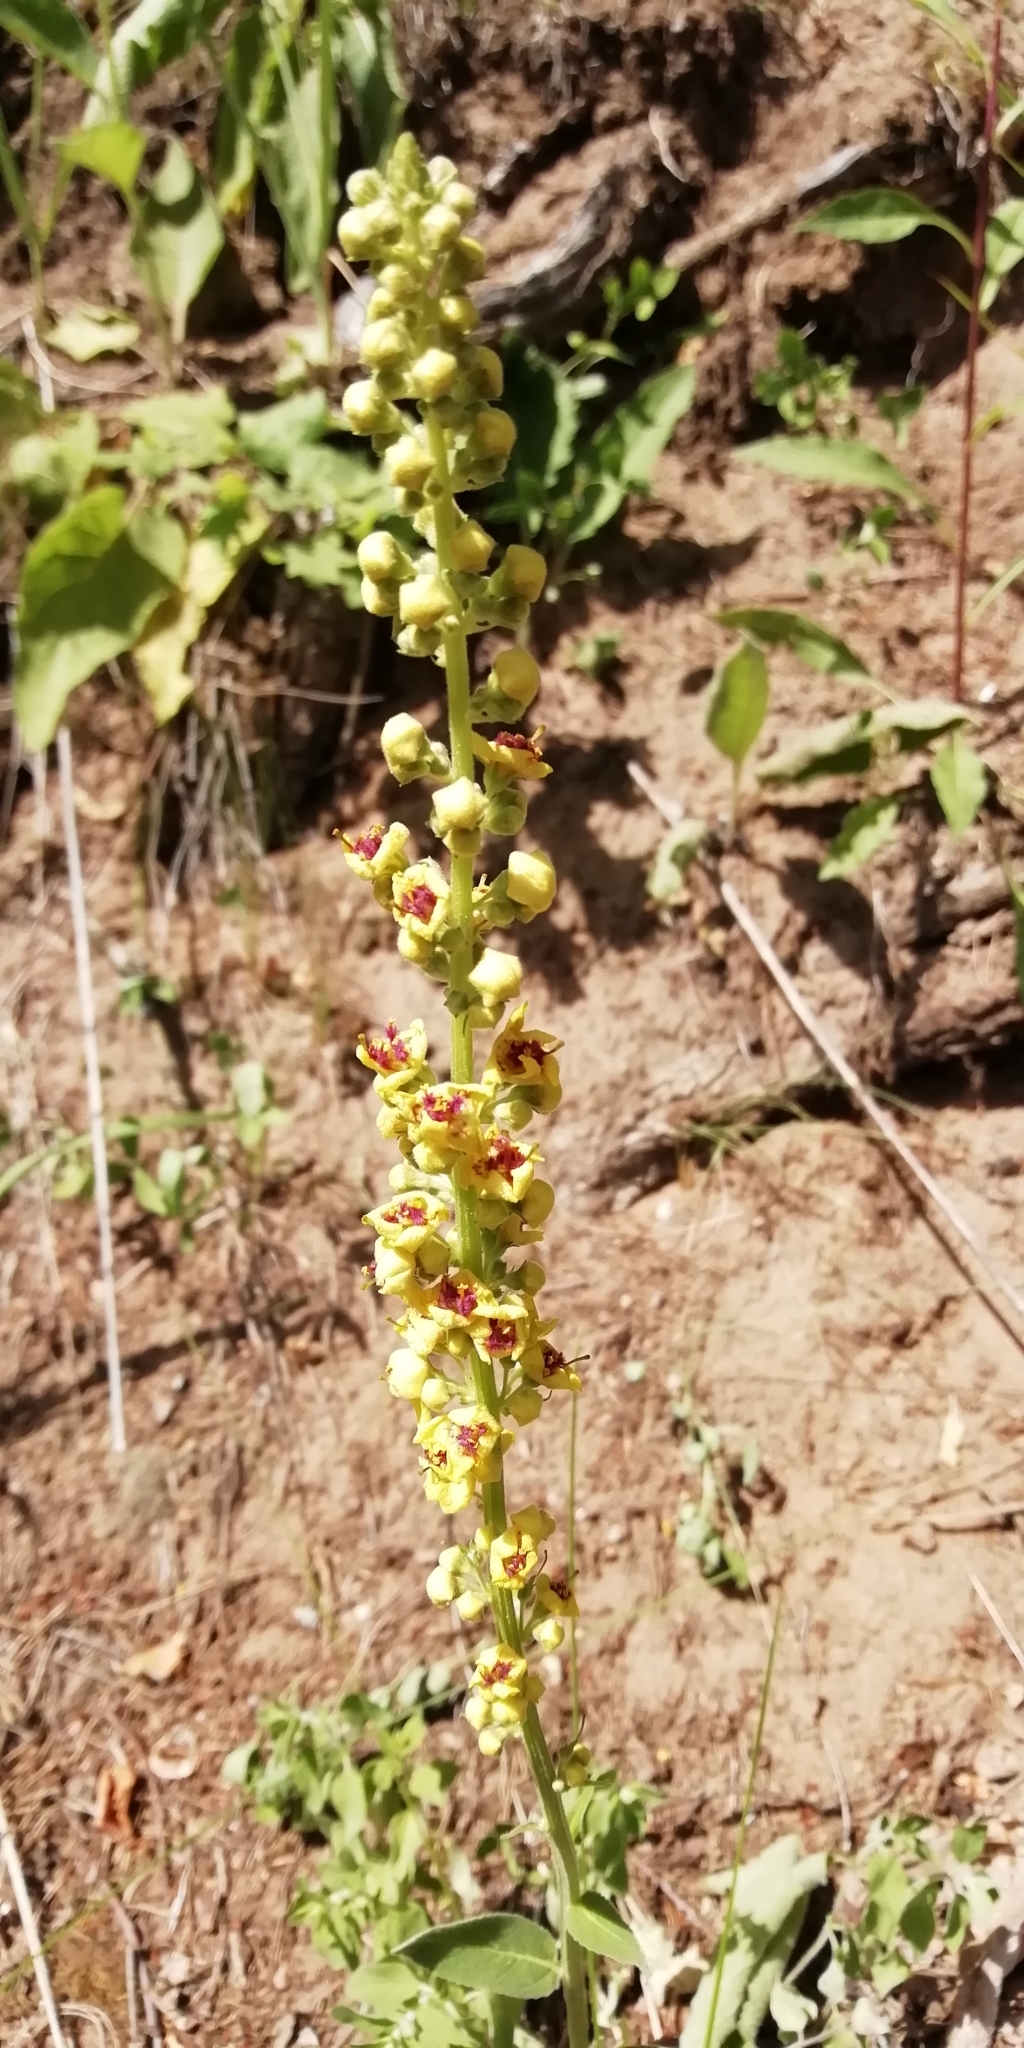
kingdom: Plantae
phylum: Tracheophyta
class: Magnoliopsida
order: Lamiales
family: Scrophulariaceae
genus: Verbascum
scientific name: Verbascum nigrum
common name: Dark mullein
